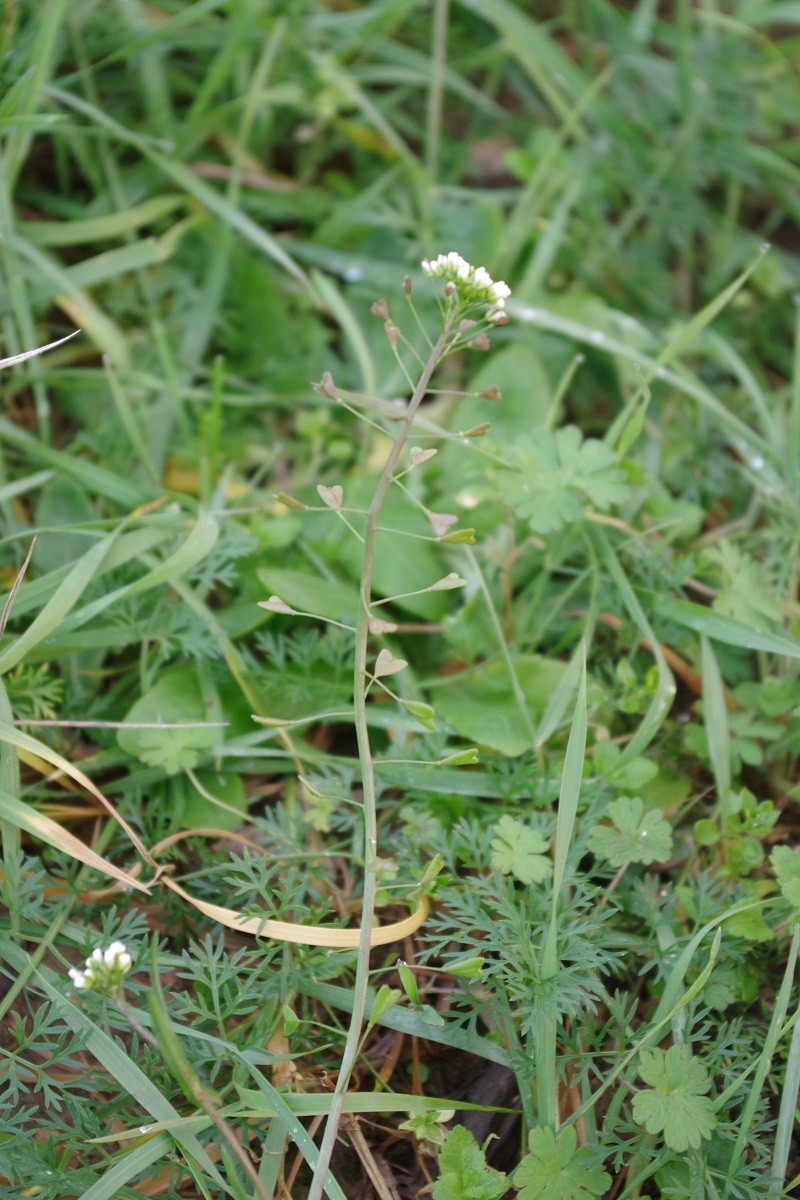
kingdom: Plantae
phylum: Tracheophyta
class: Magnoliopsida
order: Brassicales
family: Brassicaceae
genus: Capsella
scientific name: Capsella bursa-pastoris
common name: Shepherd's purse
